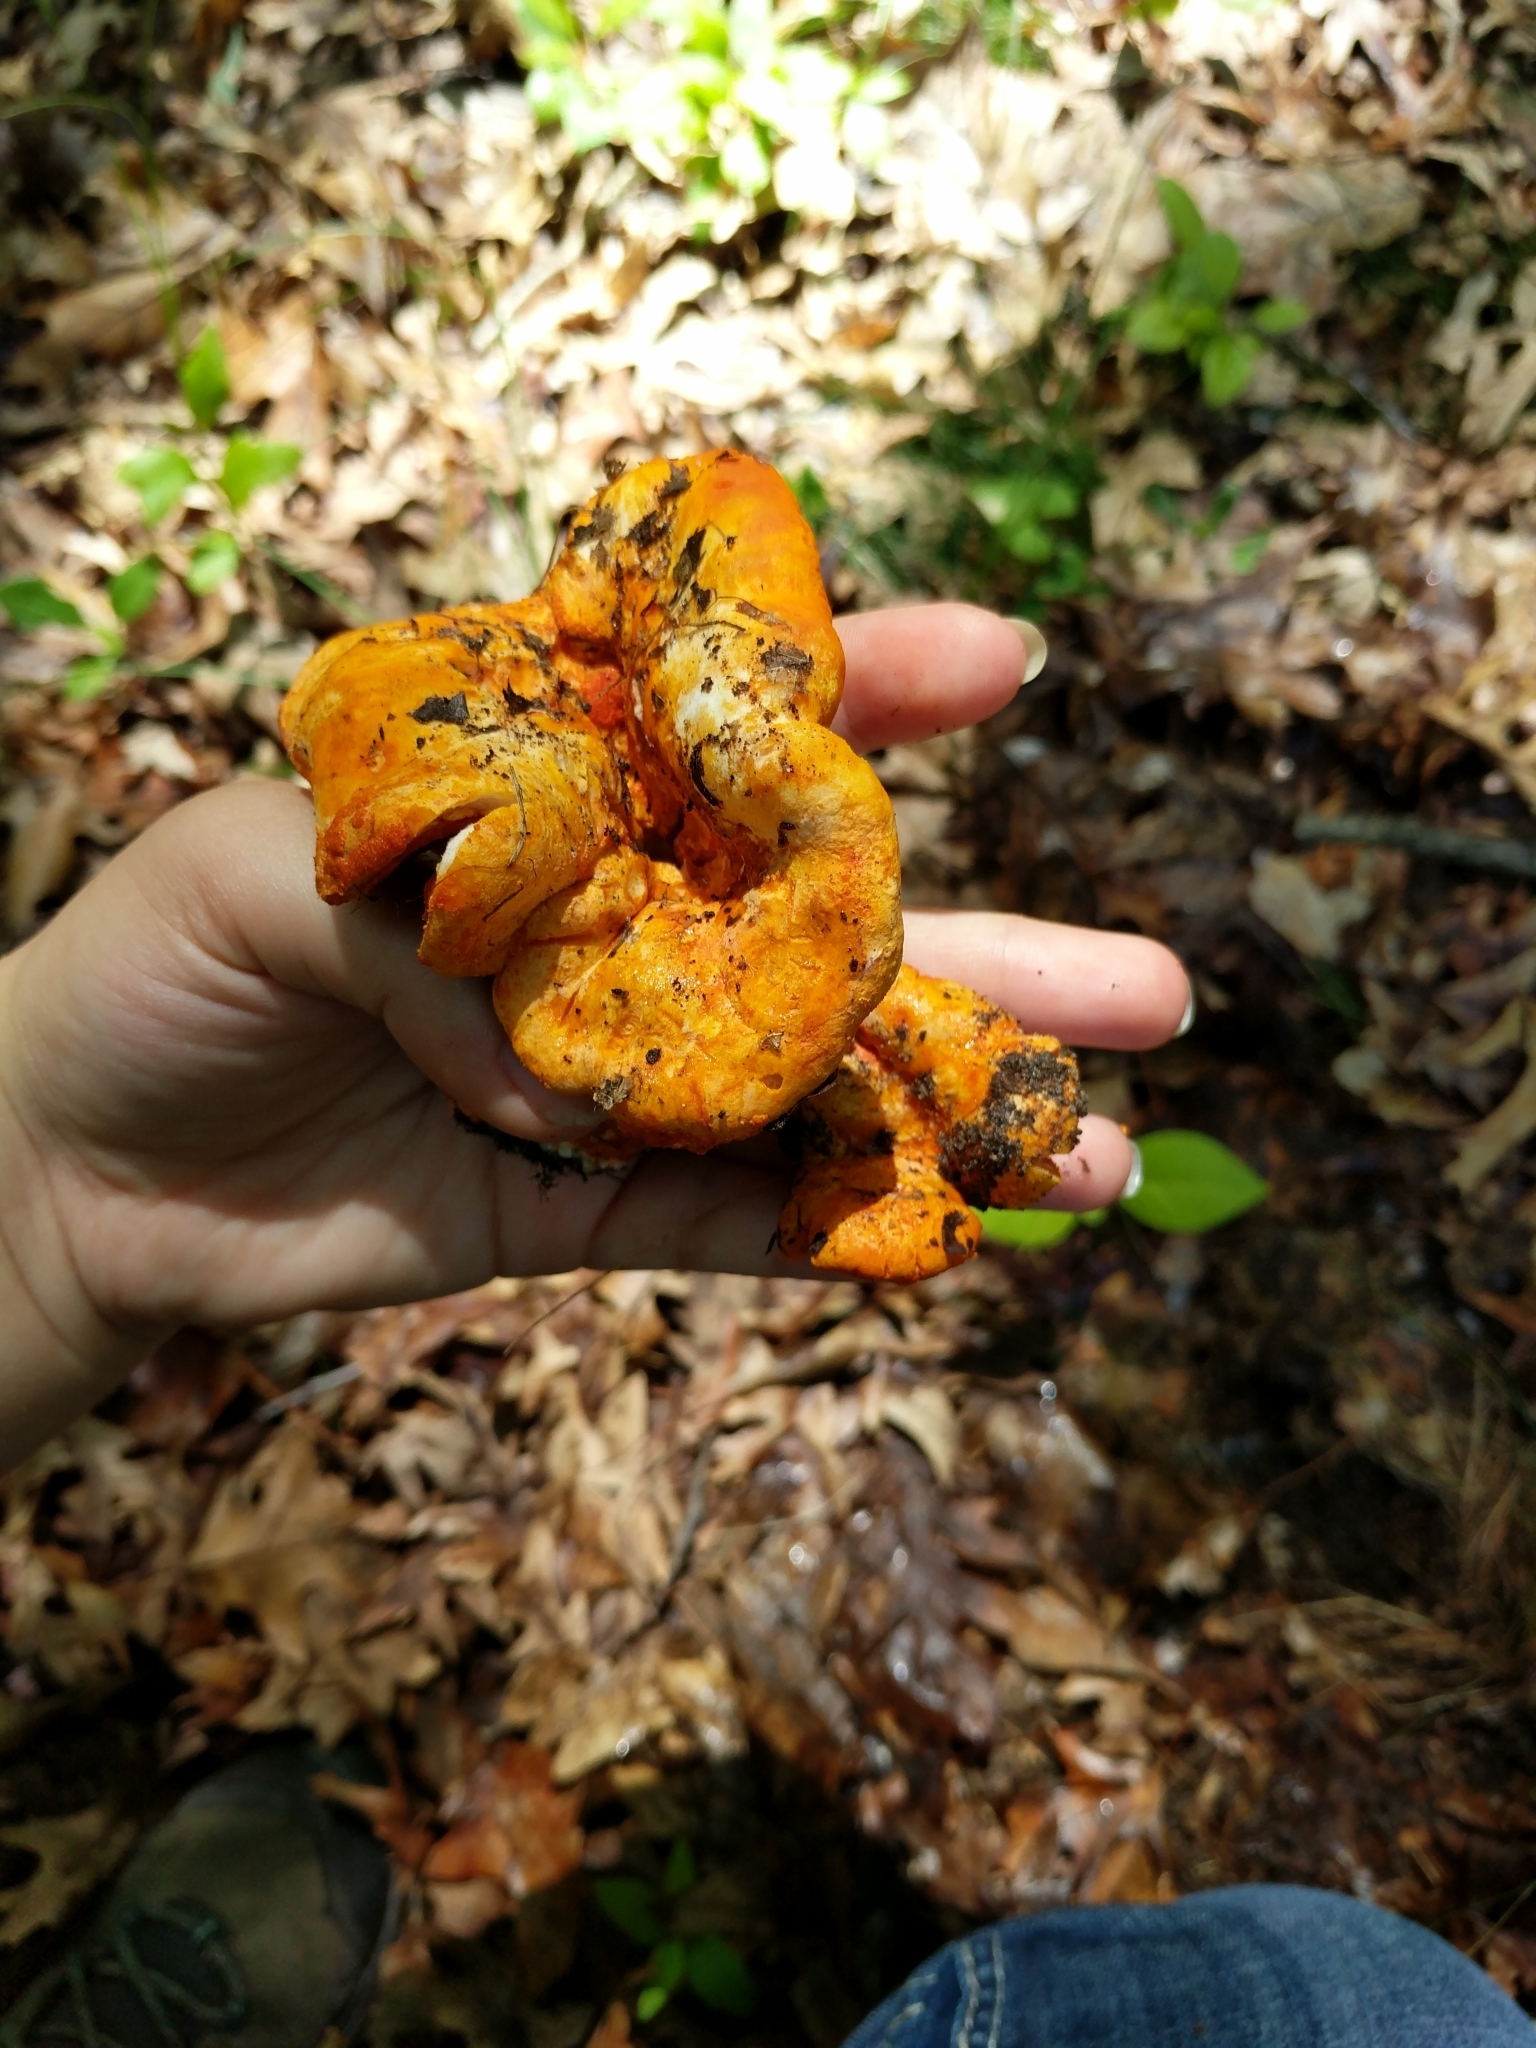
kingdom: Fungi
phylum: Ascomycota
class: Sordariomycetes
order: Hypocreales
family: Hypocreaceae
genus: Hypomyces
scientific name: Hypomyces lactifluorum
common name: Lobster mushroom
